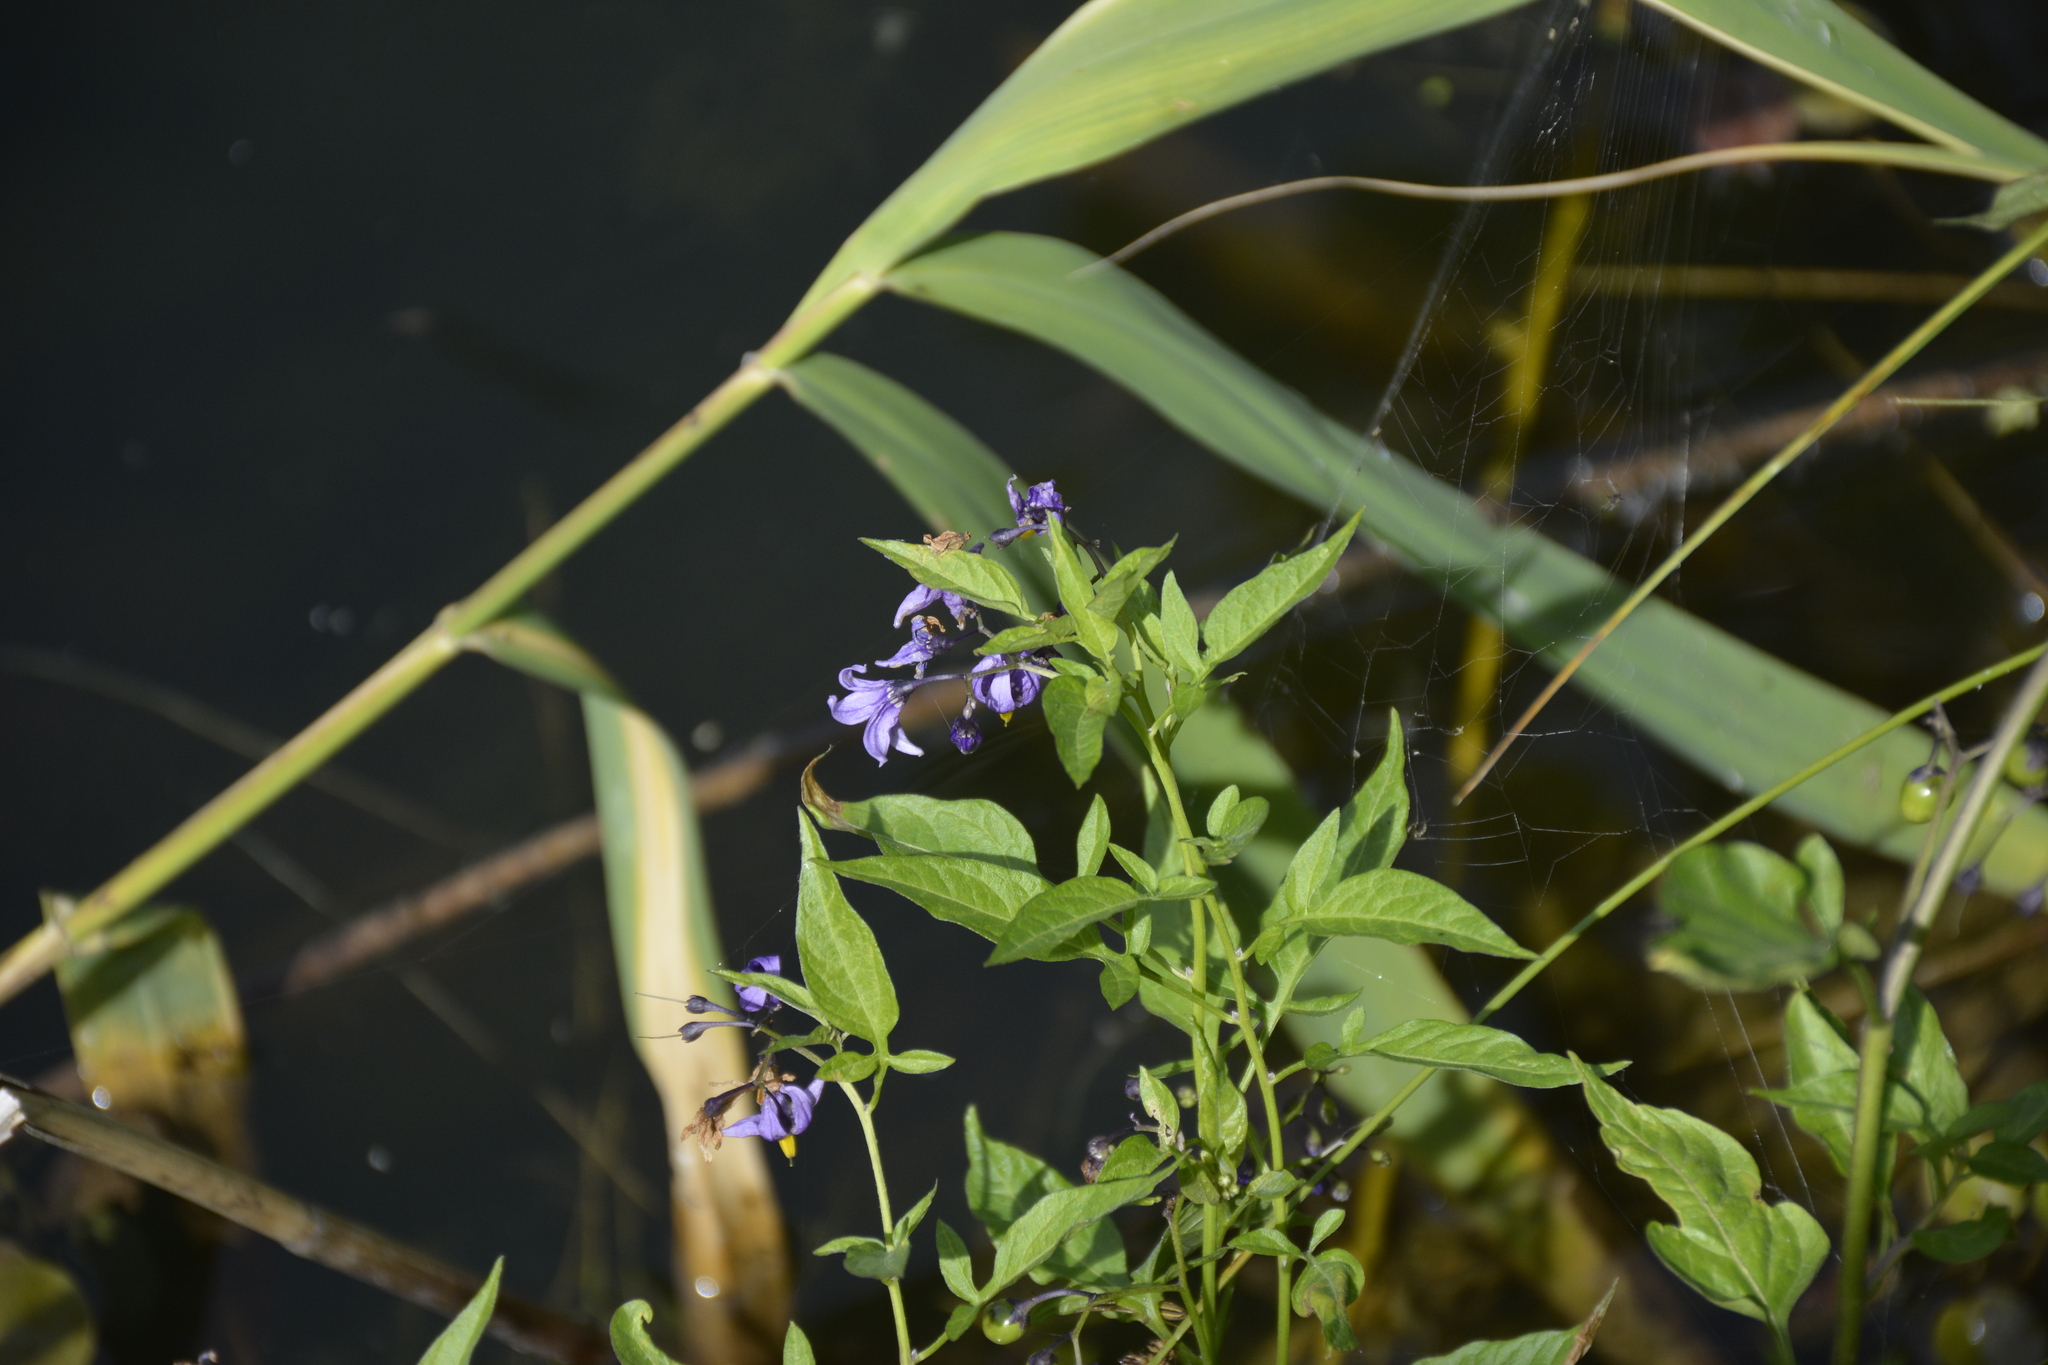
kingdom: Plantae
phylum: Tracheophyta
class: Magnoliopsida
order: Solanales
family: Solanaceae
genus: Solanum
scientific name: Solanum dulcamara
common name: Climbing nightshade
